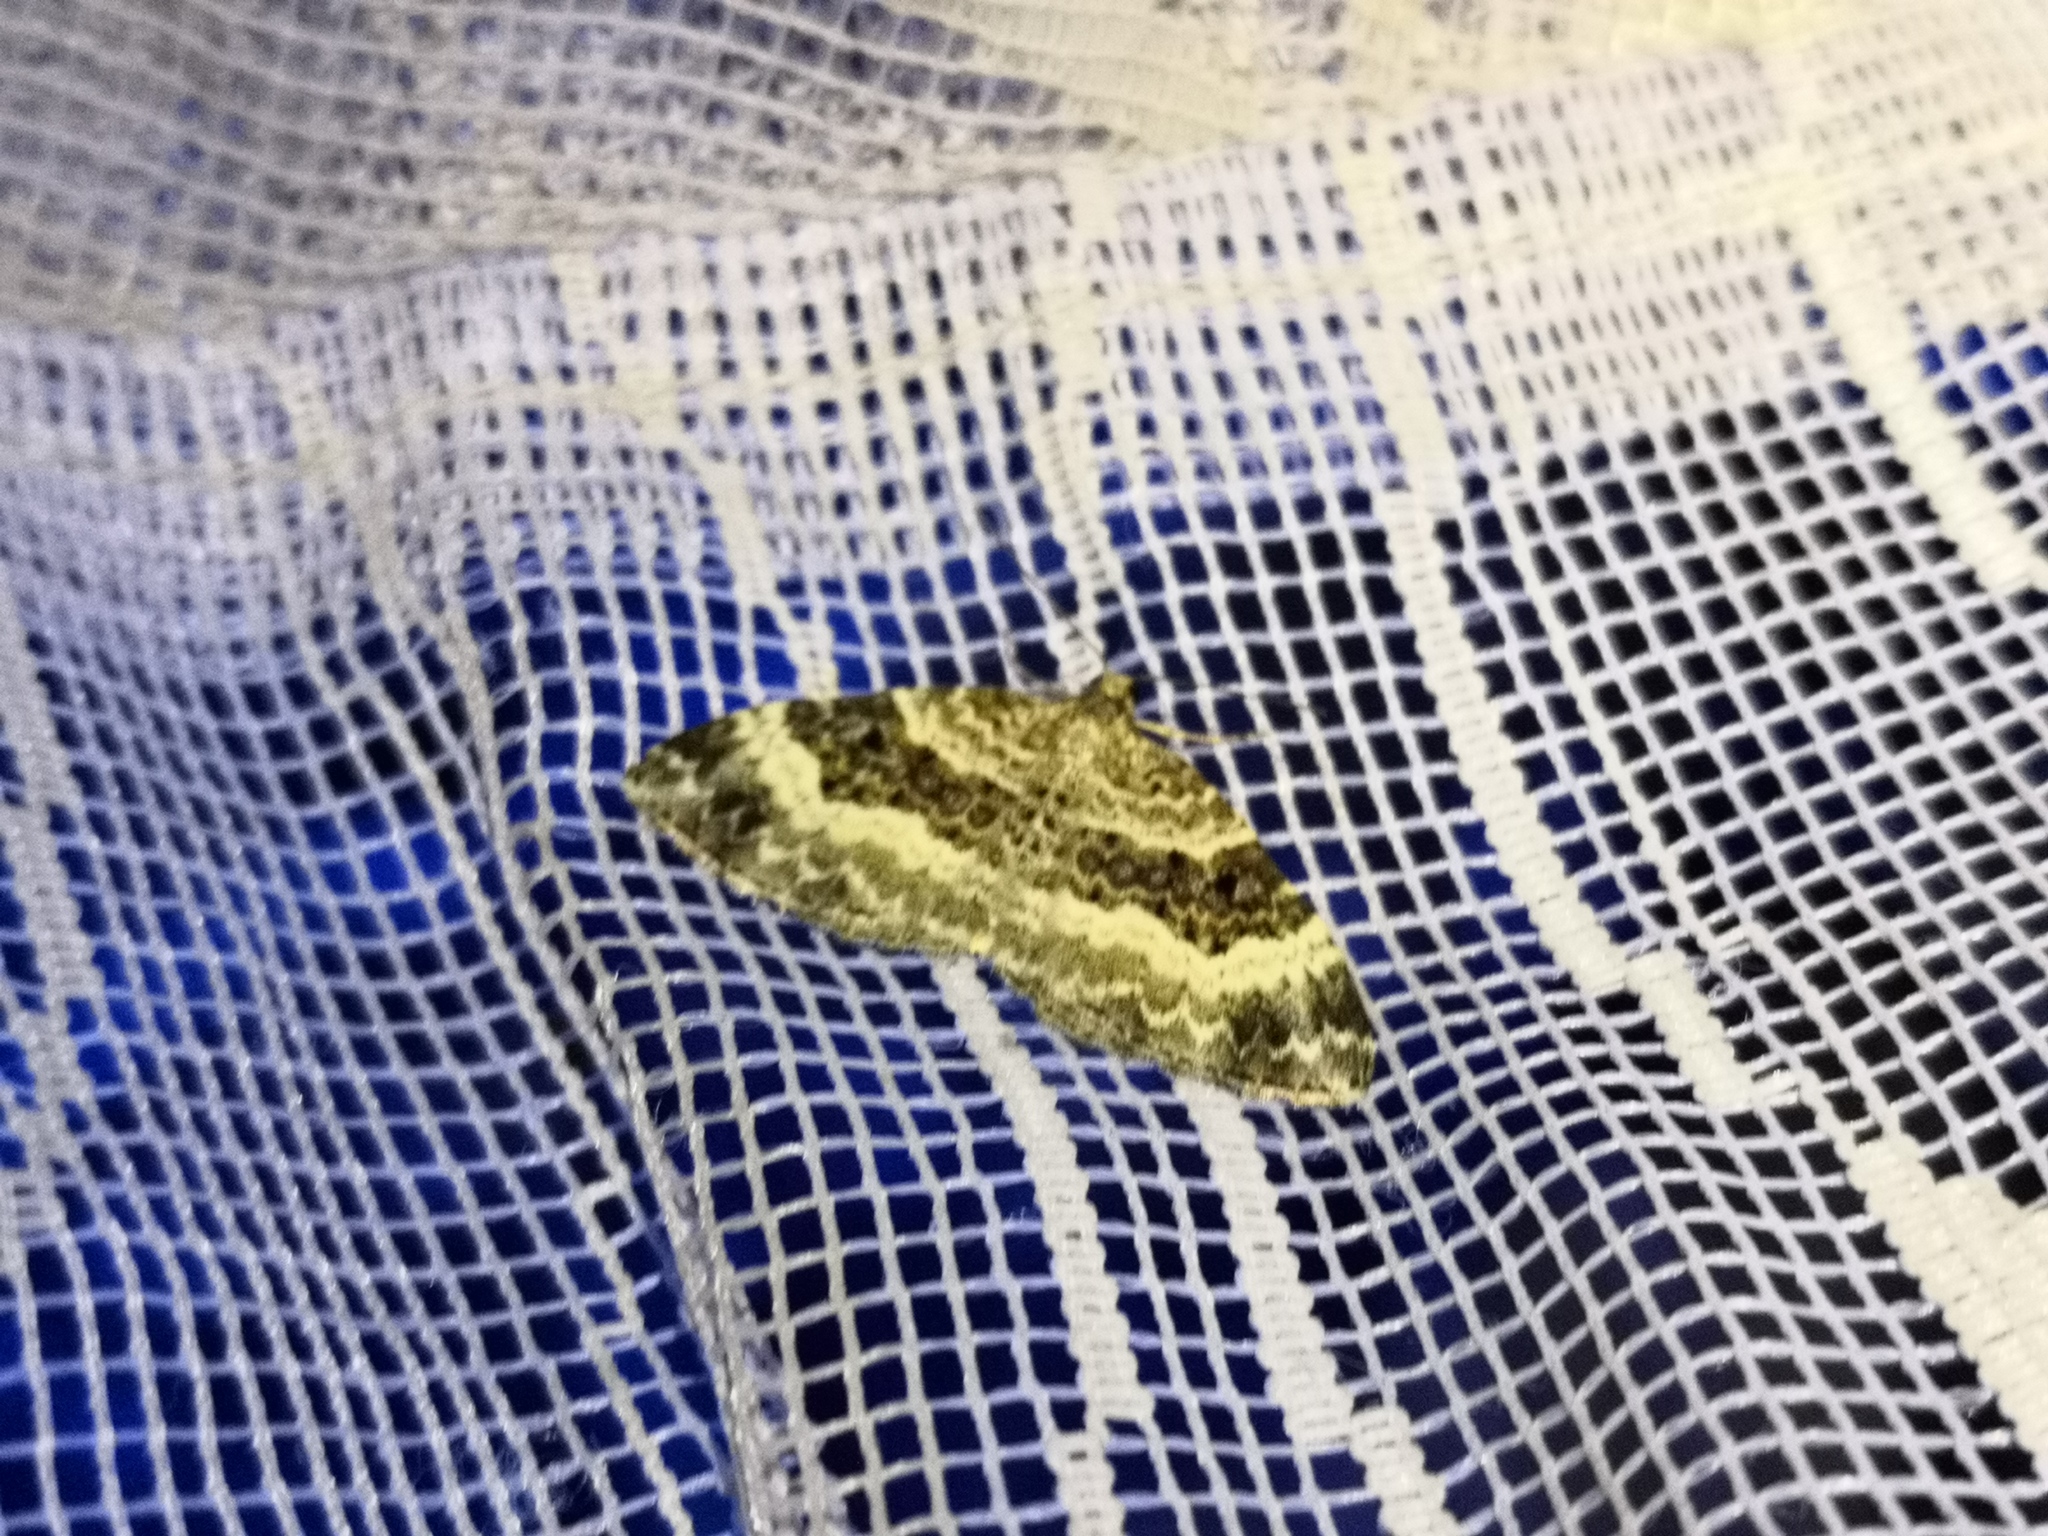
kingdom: Animalia
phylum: Arthropoda
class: Insecta
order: Lepidoptera
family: Geometridae
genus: Epirrhoe
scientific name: Epirrhoe alternata
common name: Common carpet
